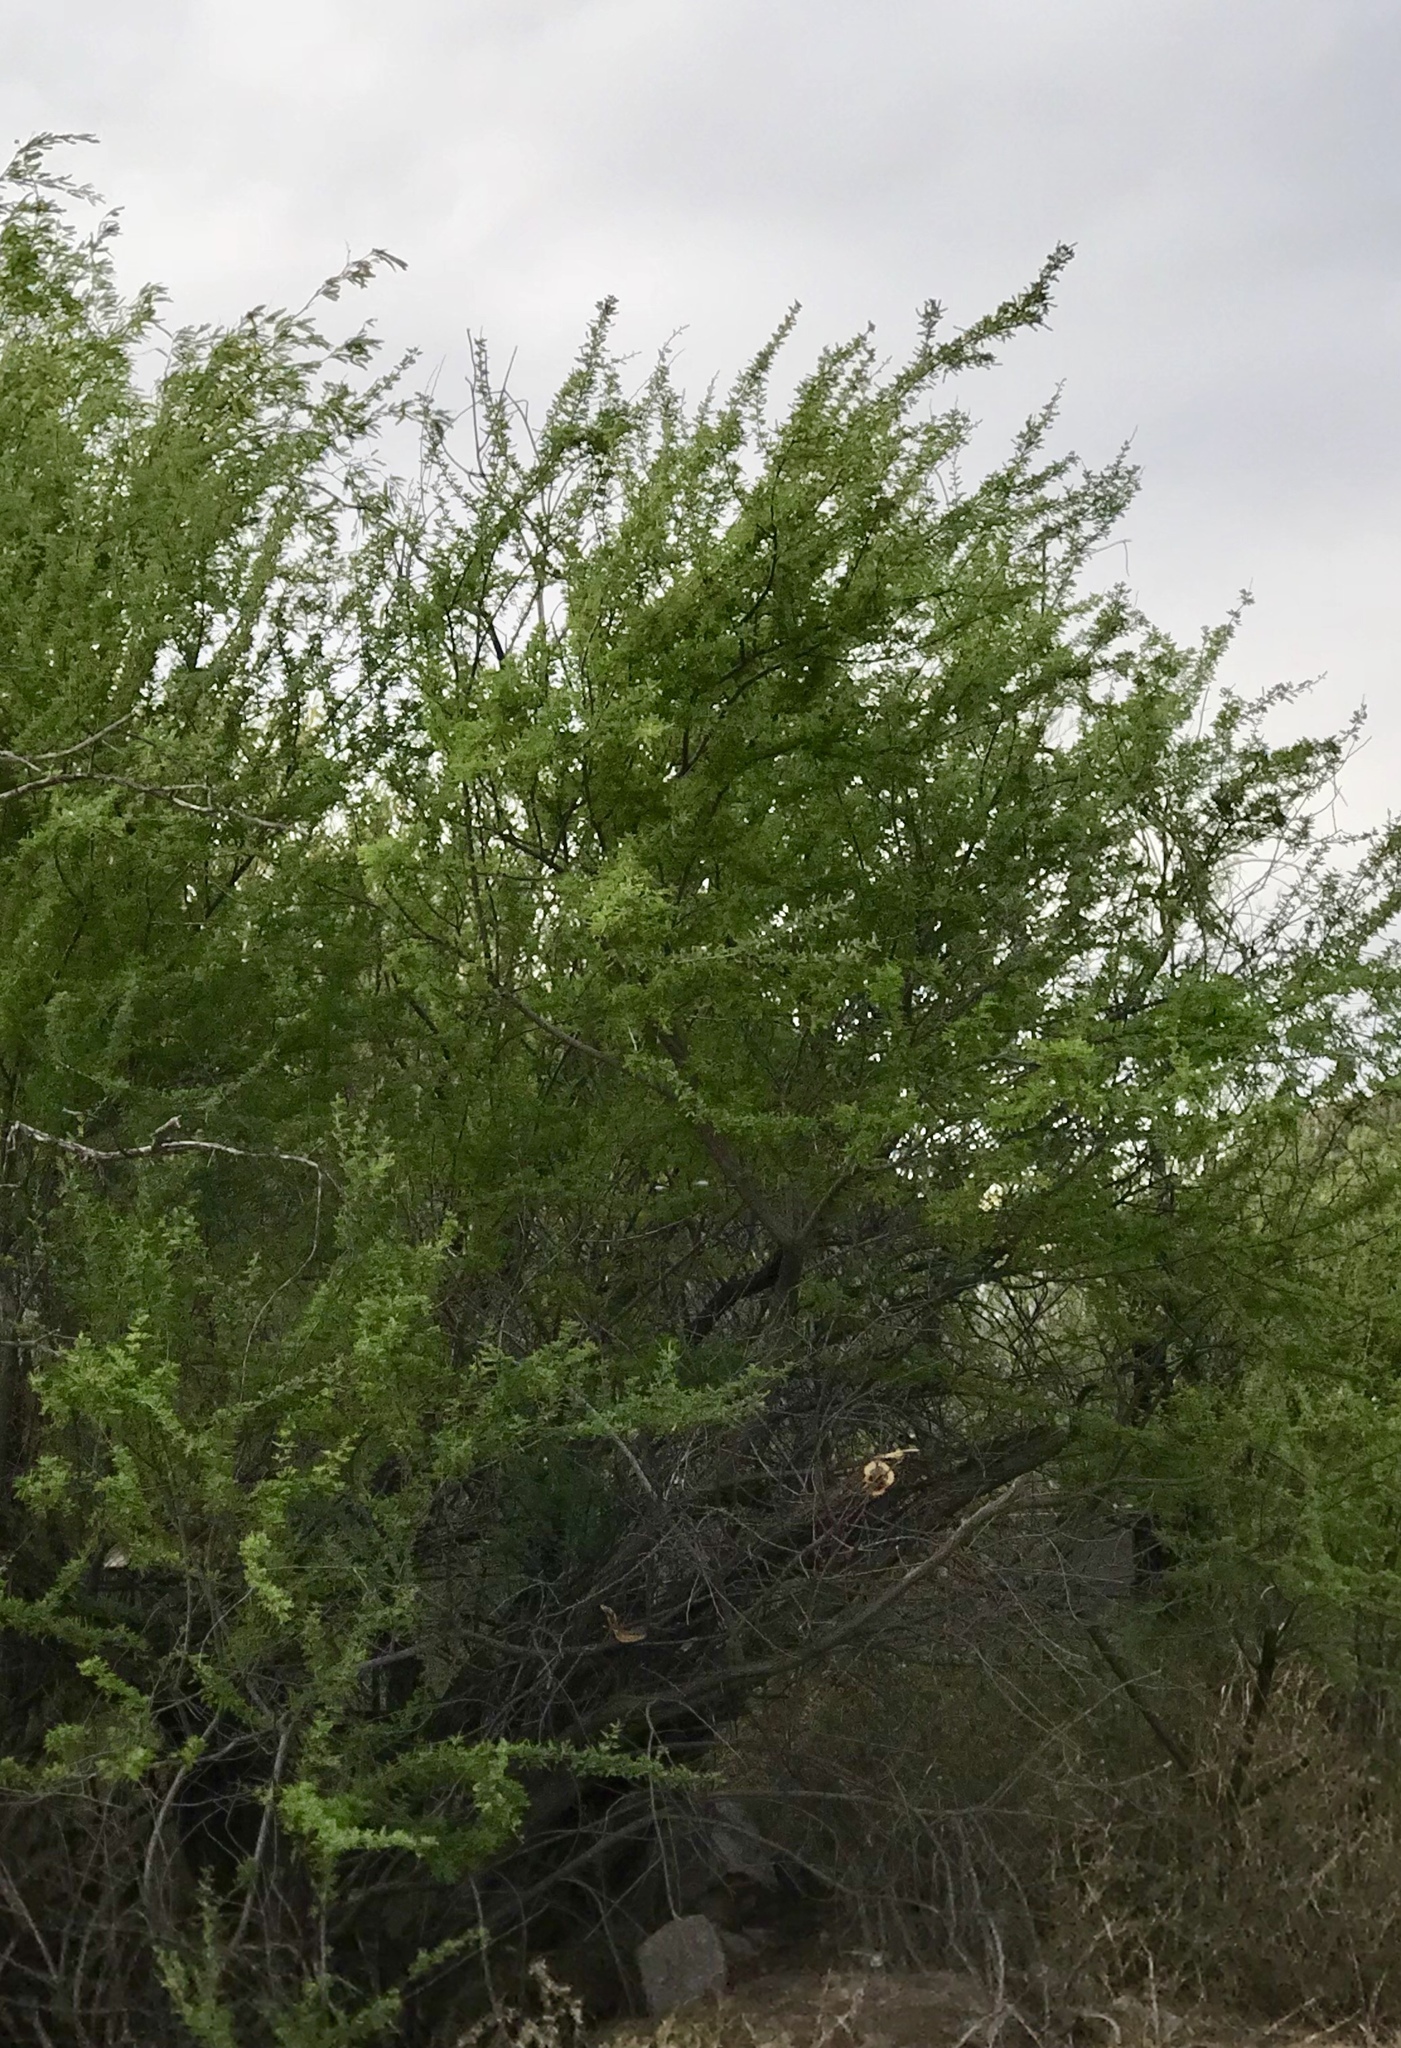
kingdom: Plantae
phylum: Tracheophyta
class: Magnoliopsida
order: Fabales
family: Fabaceae
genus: Senegalia
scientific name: Senegalia greggii
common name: Texas-mimosa
